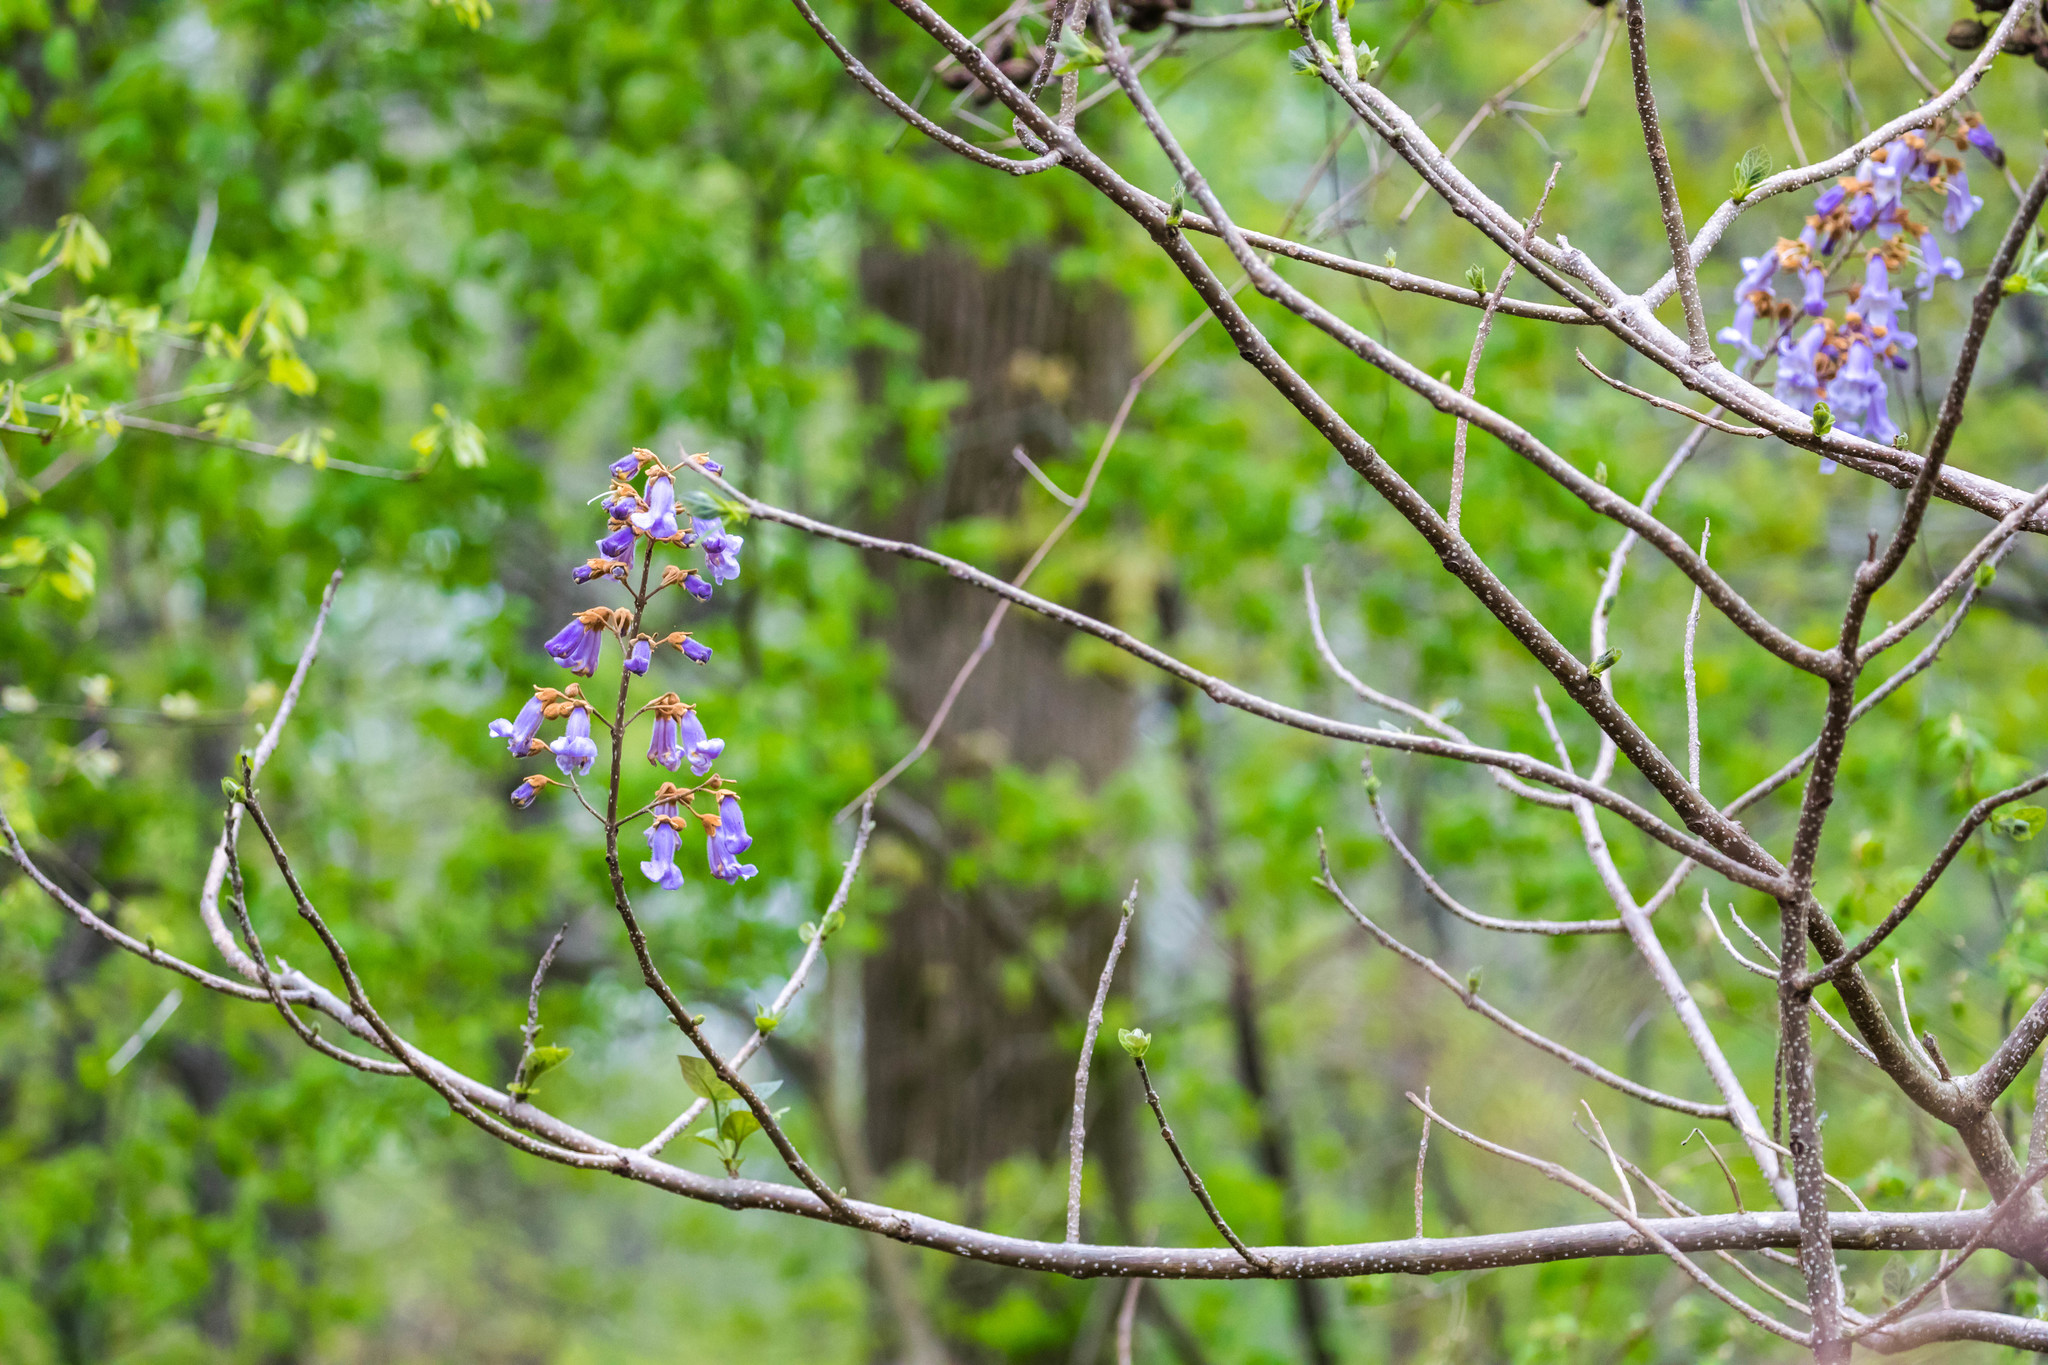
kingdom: Plantae
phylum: Tracheophyta
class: Magnoliopsida
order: Lamiales
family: Paulowniaceae
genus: Paulownia
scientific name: Paulownia tomentosa
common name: Foxglove-tree
